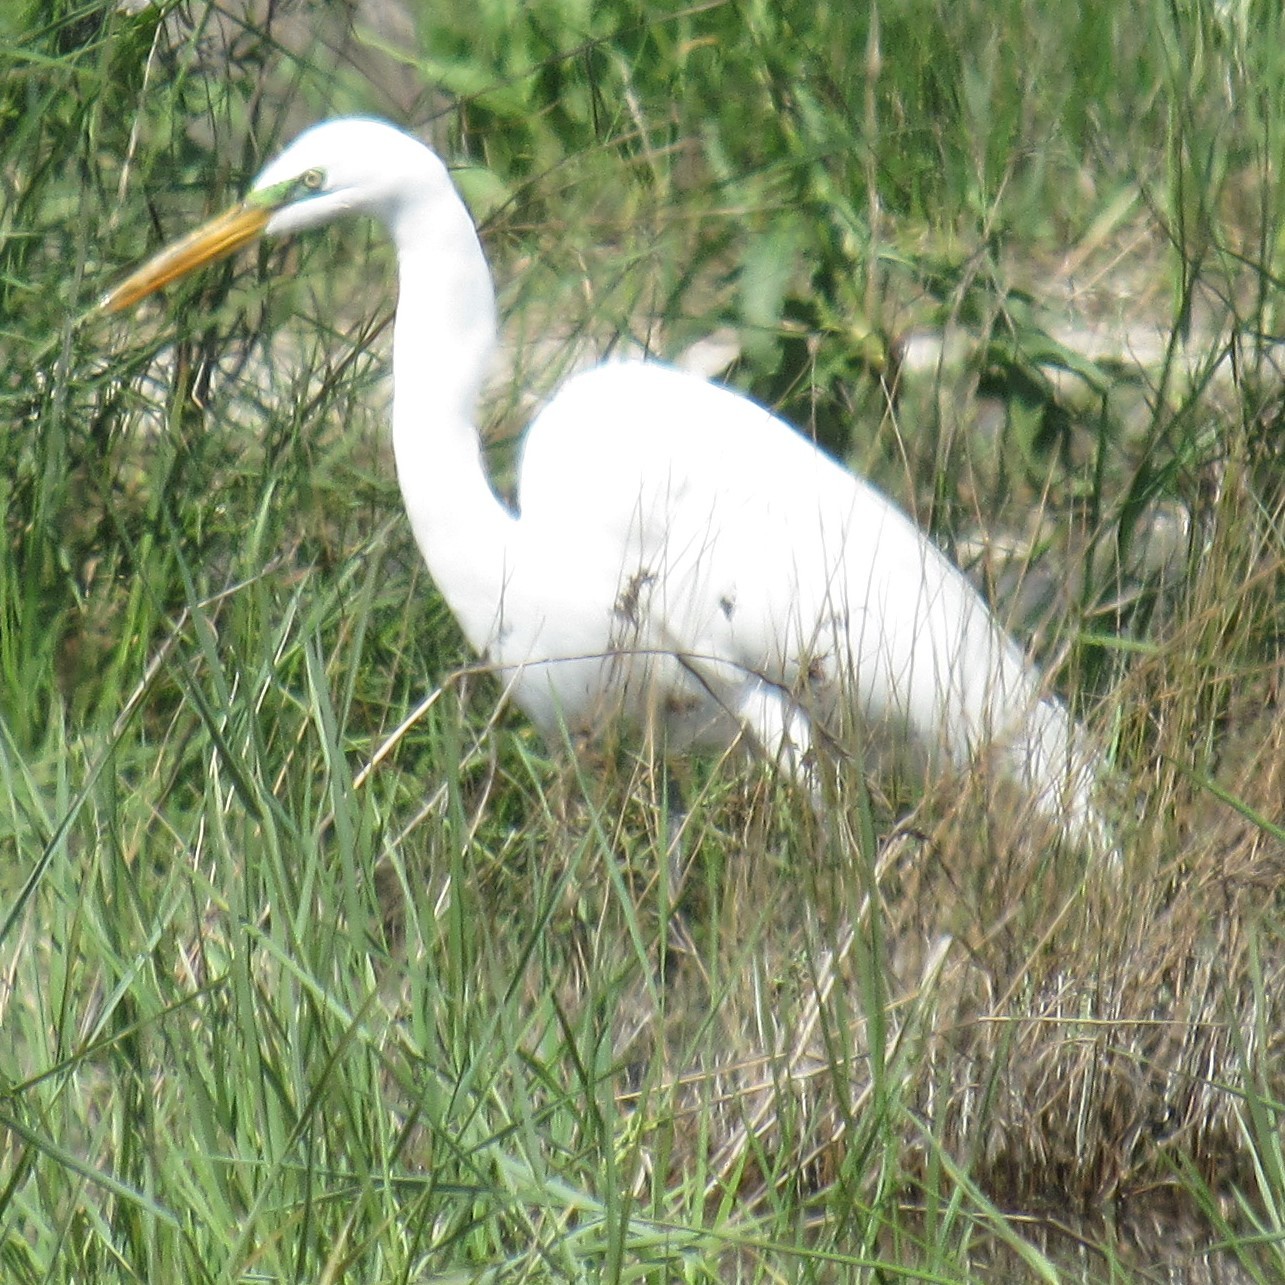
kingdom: Animalia
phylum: Chordata
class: Aves
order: Pelecaniformes
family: Ardeidae
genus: Ardea
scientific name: Ardea alba
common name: Great egret
